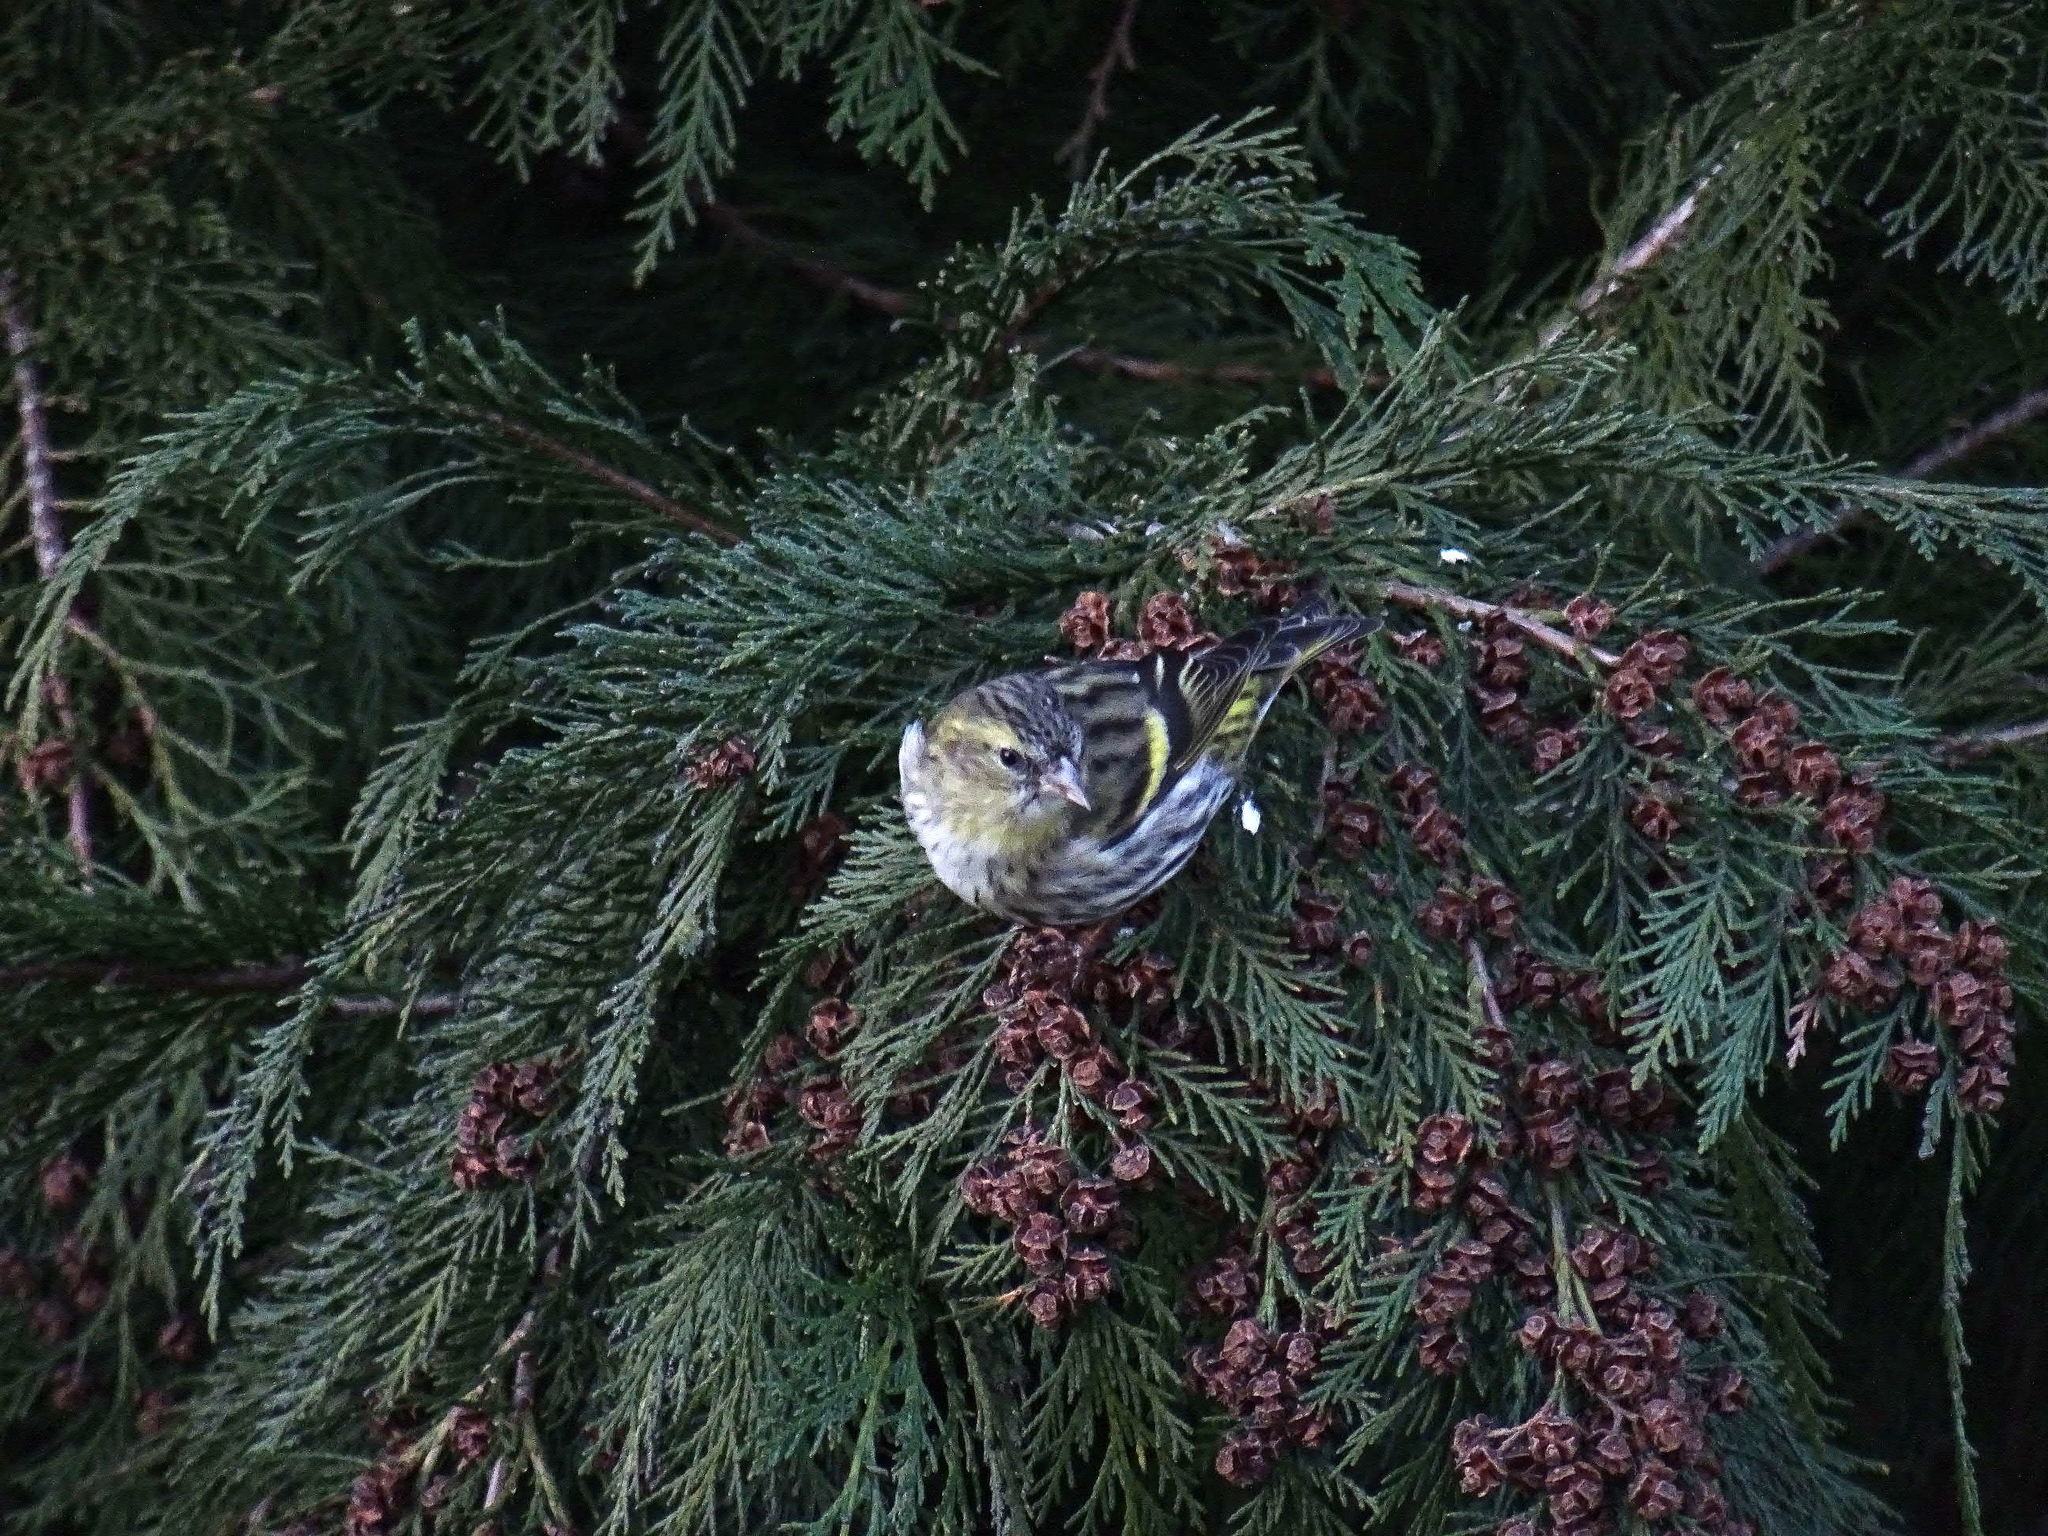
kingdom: Animalia
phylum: Chordata
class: Aves
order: Passeriformes
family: Fringillidae
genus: Spinus
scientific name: Spinus spinus
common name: Eurasian siskin
